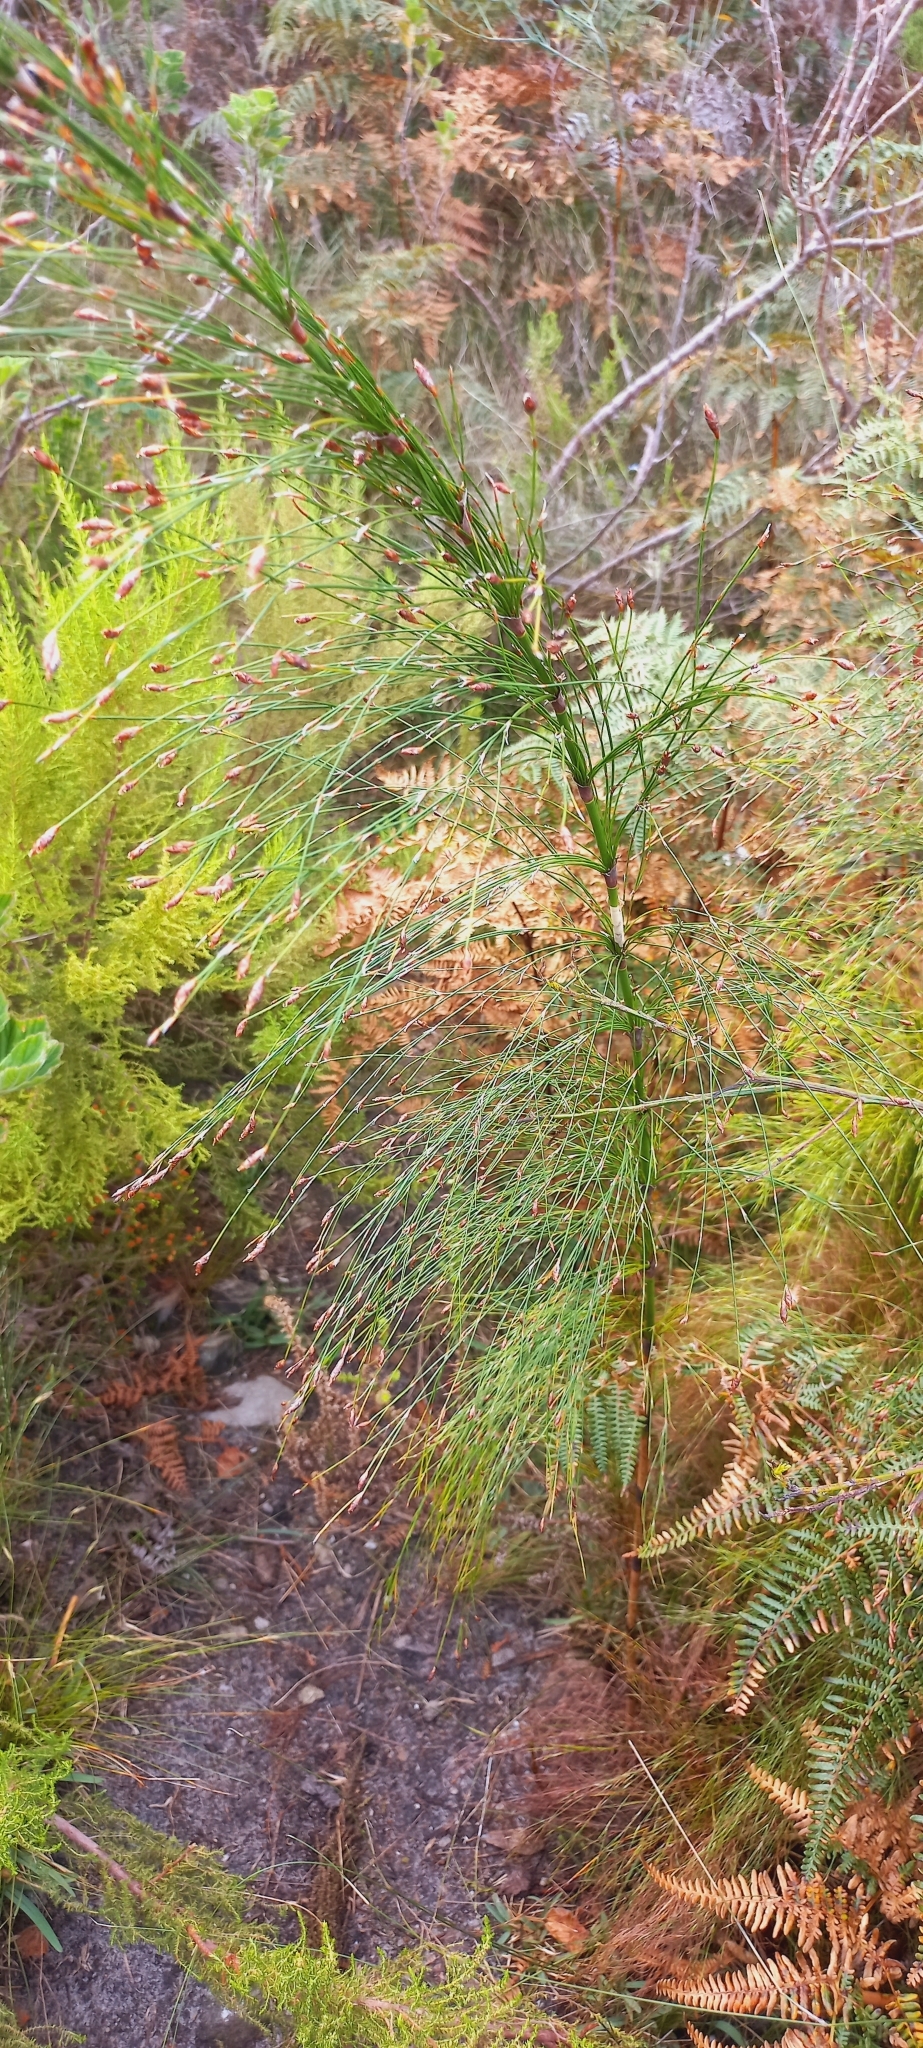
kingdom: Plantae
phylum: Tracheophyta
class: Liliopsida
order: Poales
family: Restionaceae
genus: Restio
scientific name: Restio subverticillatus
